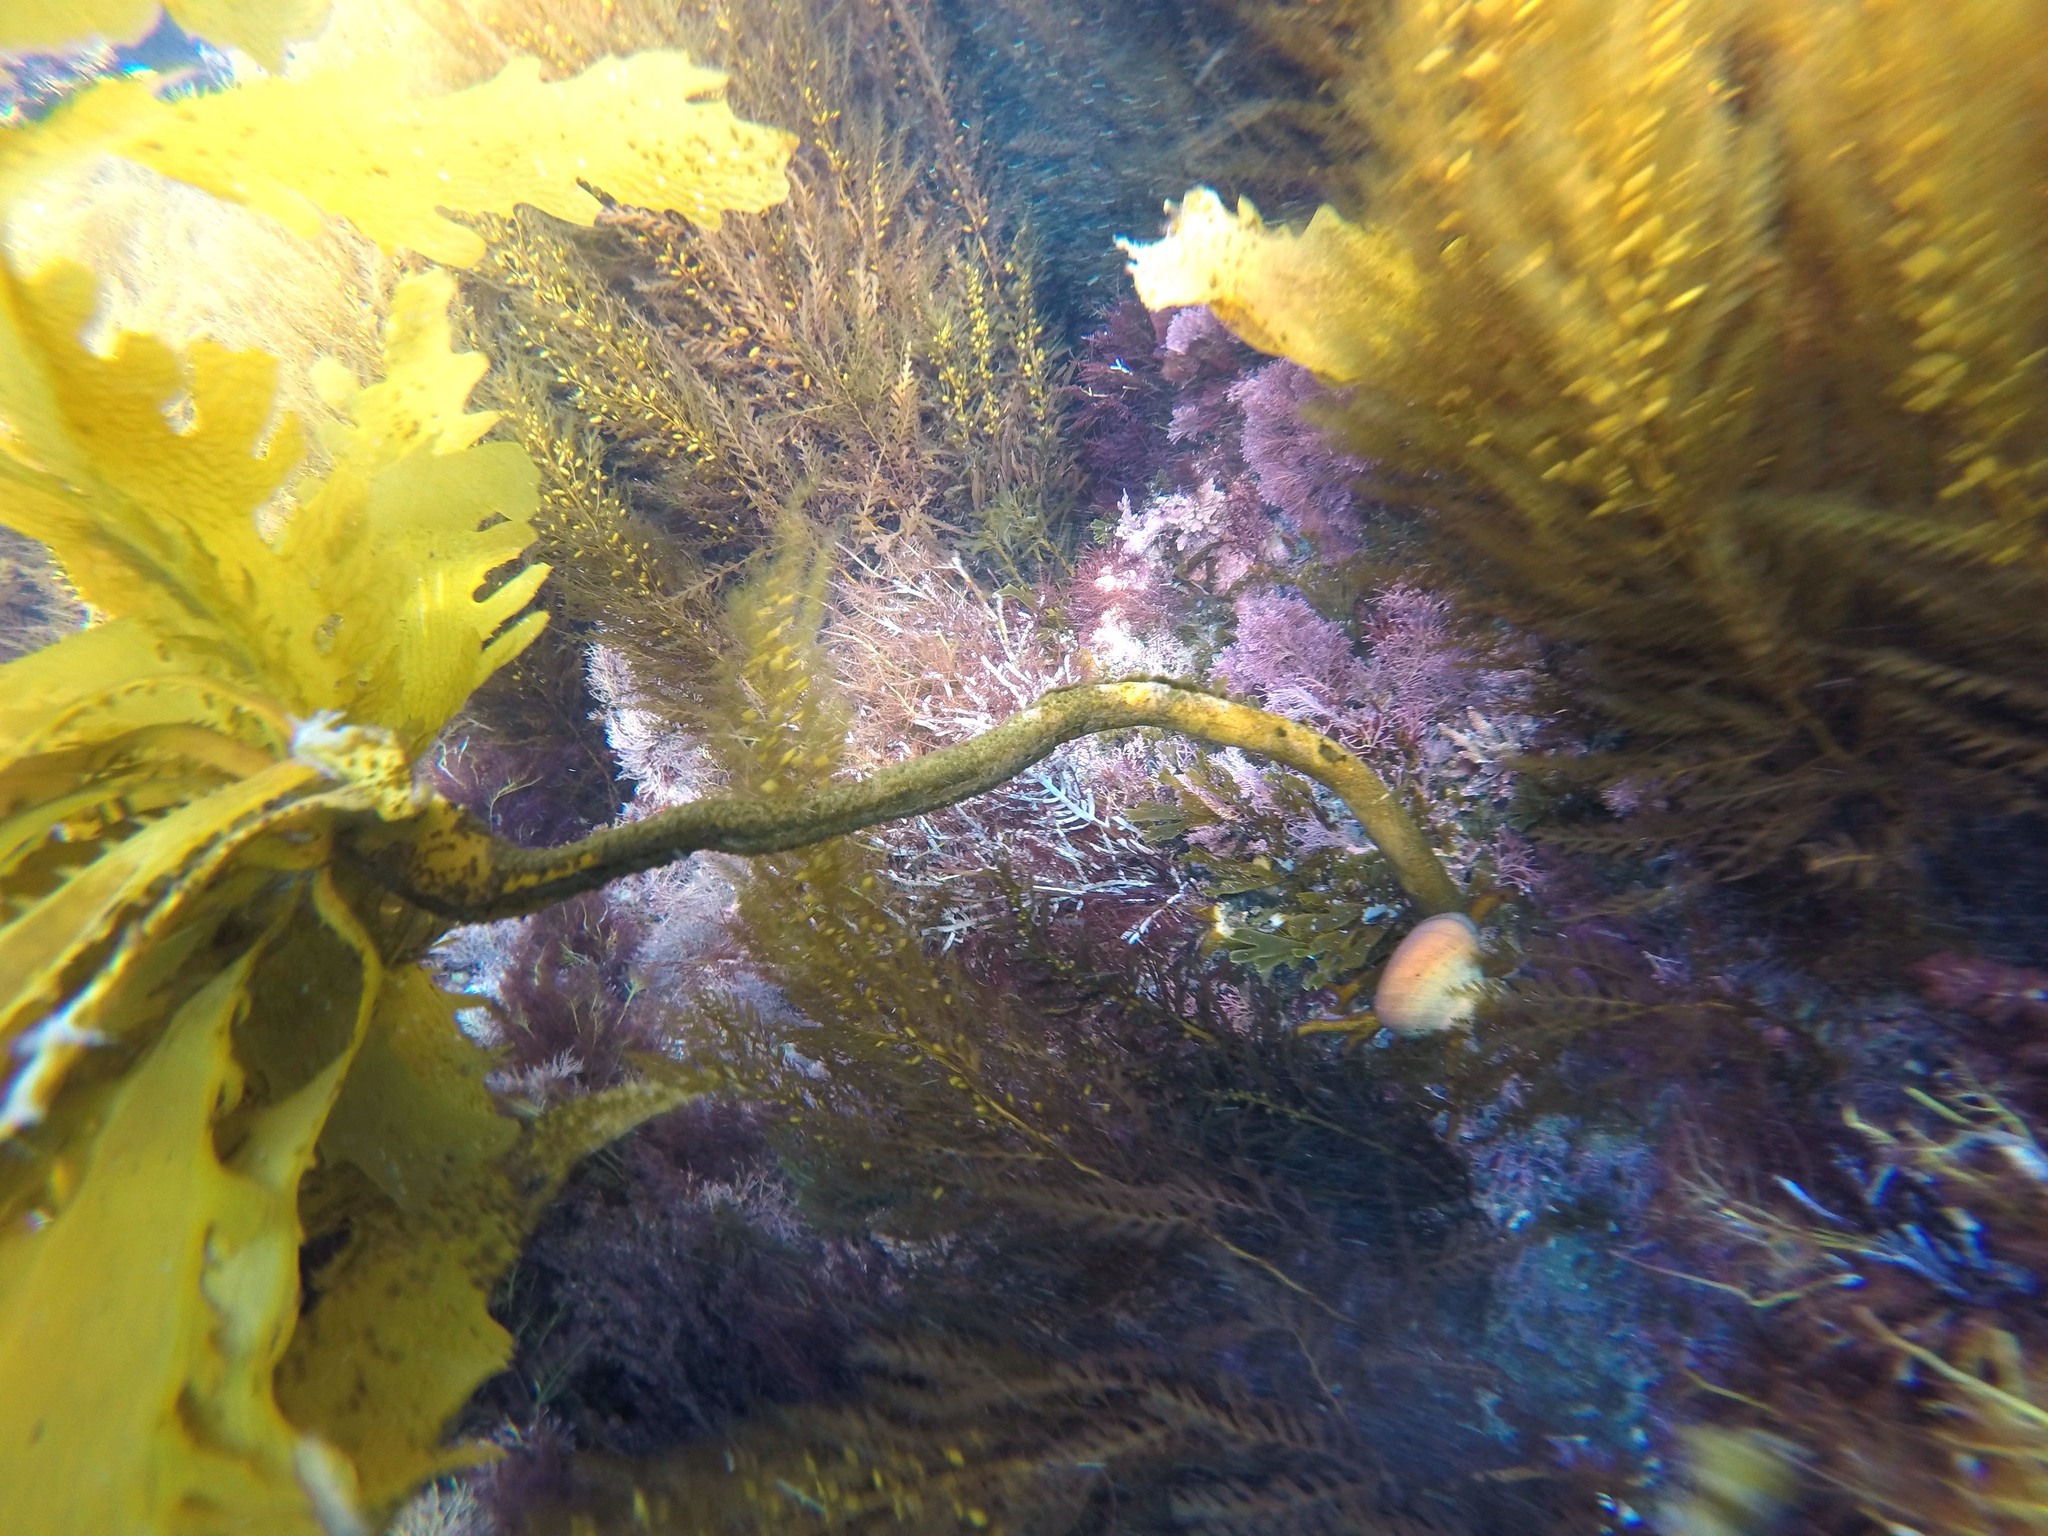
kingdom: Animalia
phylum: Mollusca
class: Gastropoda
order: Trochida
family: Tegulidae
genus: Norrisia
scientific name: Norrisia norrisii
